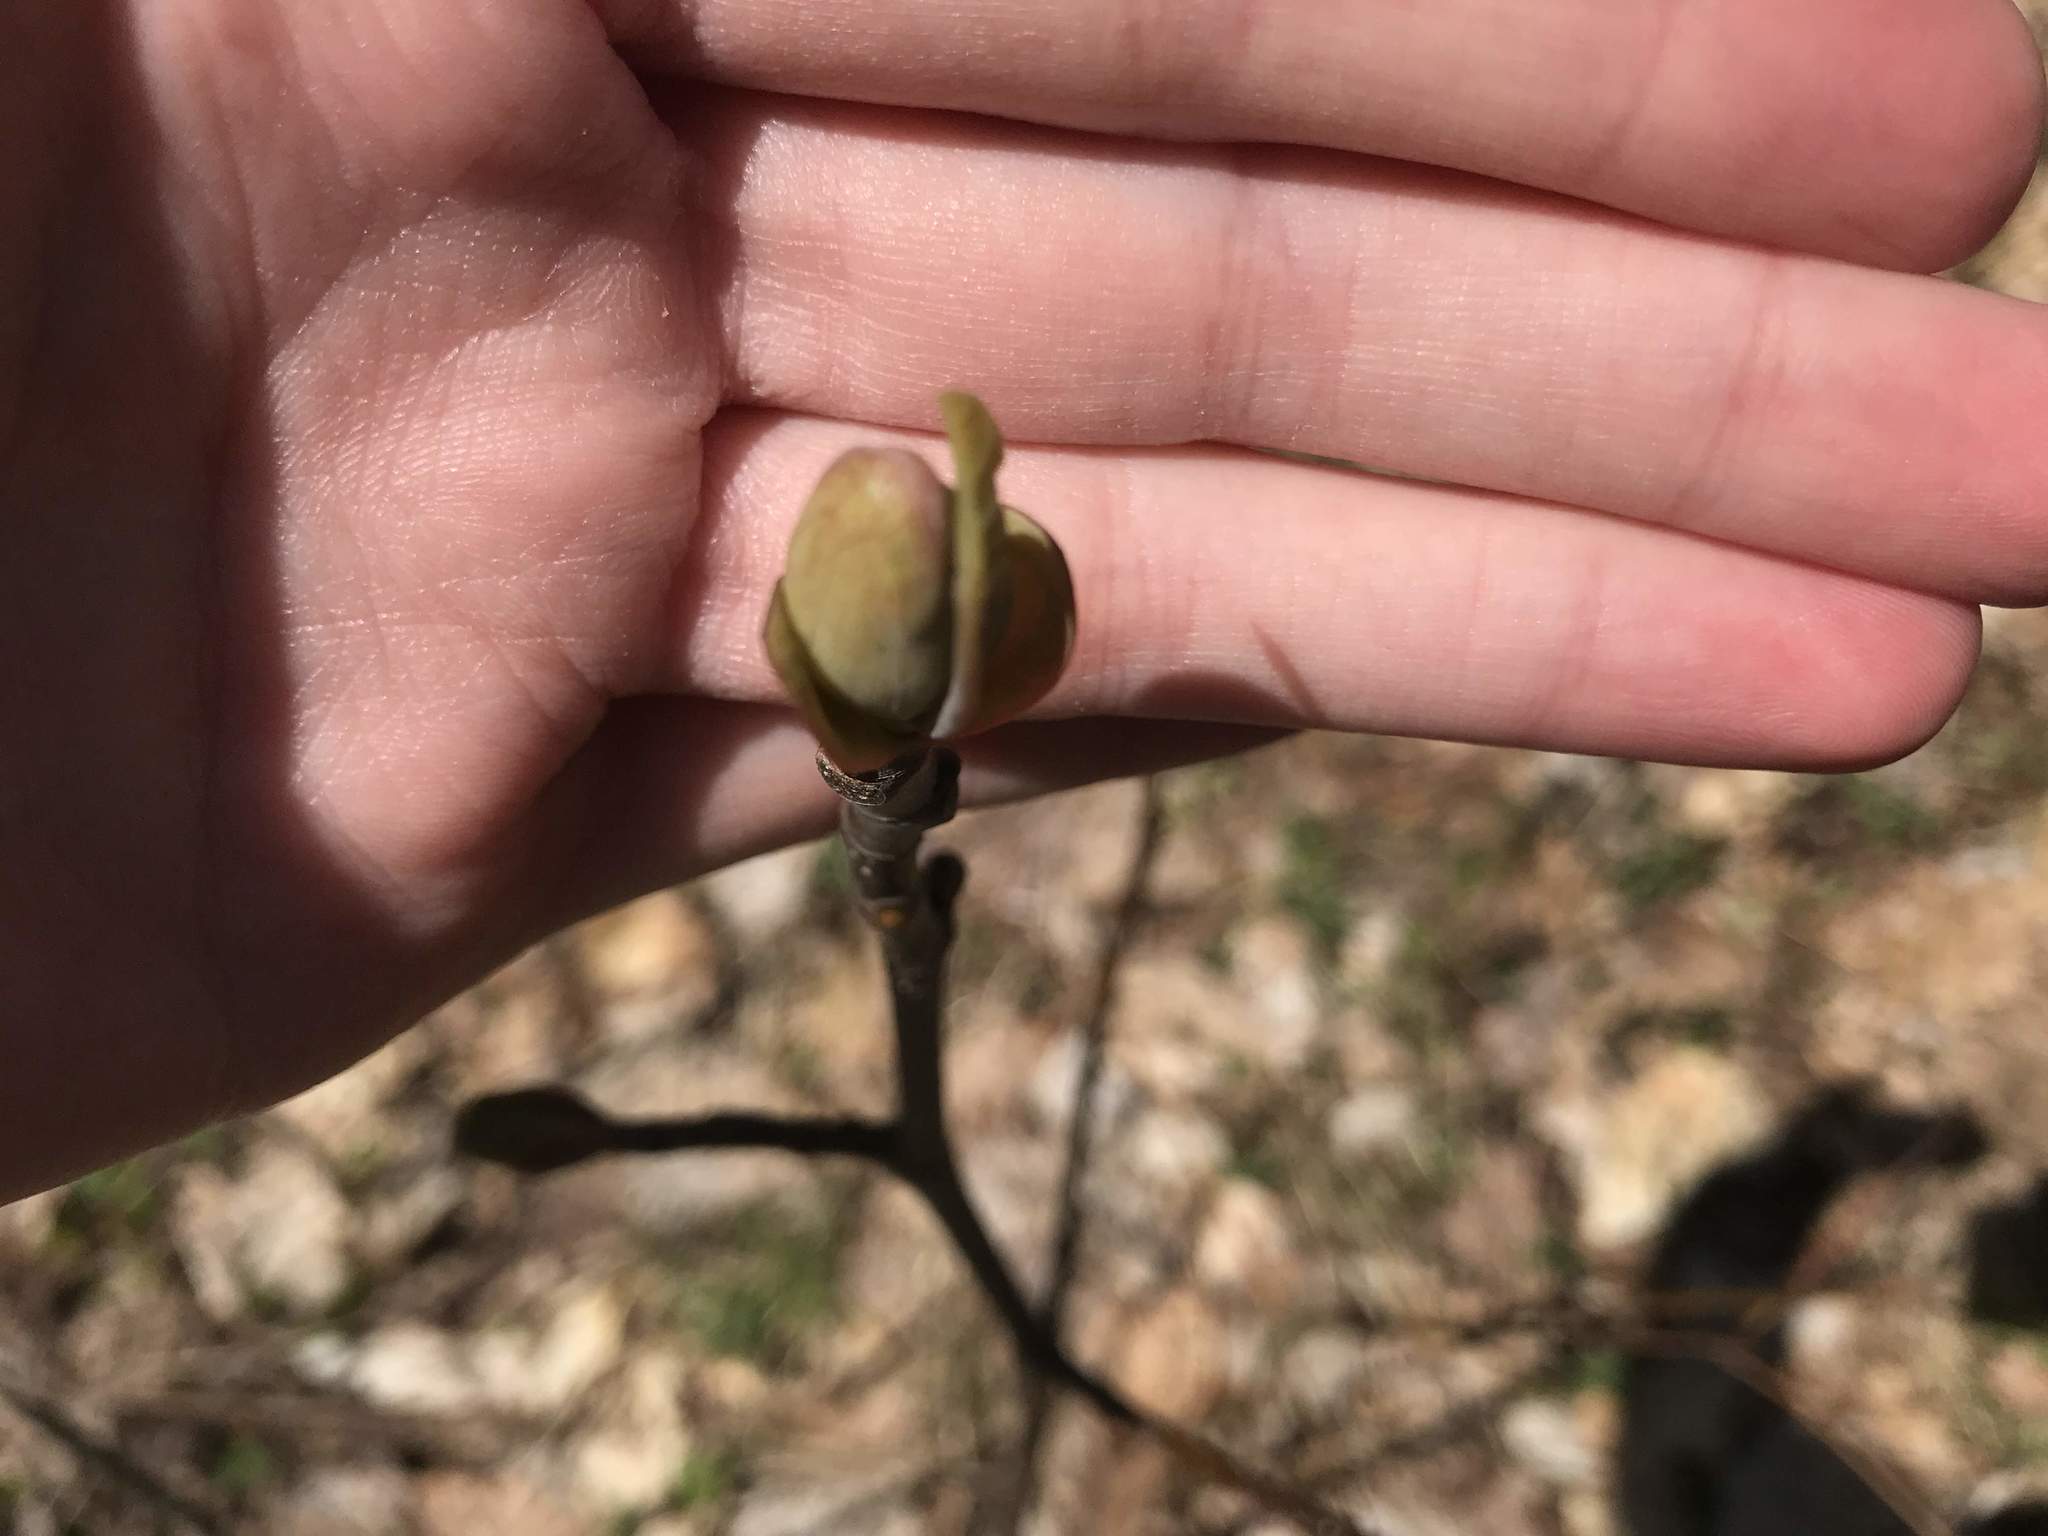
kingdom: Plantae
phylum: Tracheophyta
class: Magnoliopsida
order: Magnoliales
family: Magnoliaceae
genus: Liriodendron
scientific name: Liriodendron tulipifera
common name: Tulip tree
